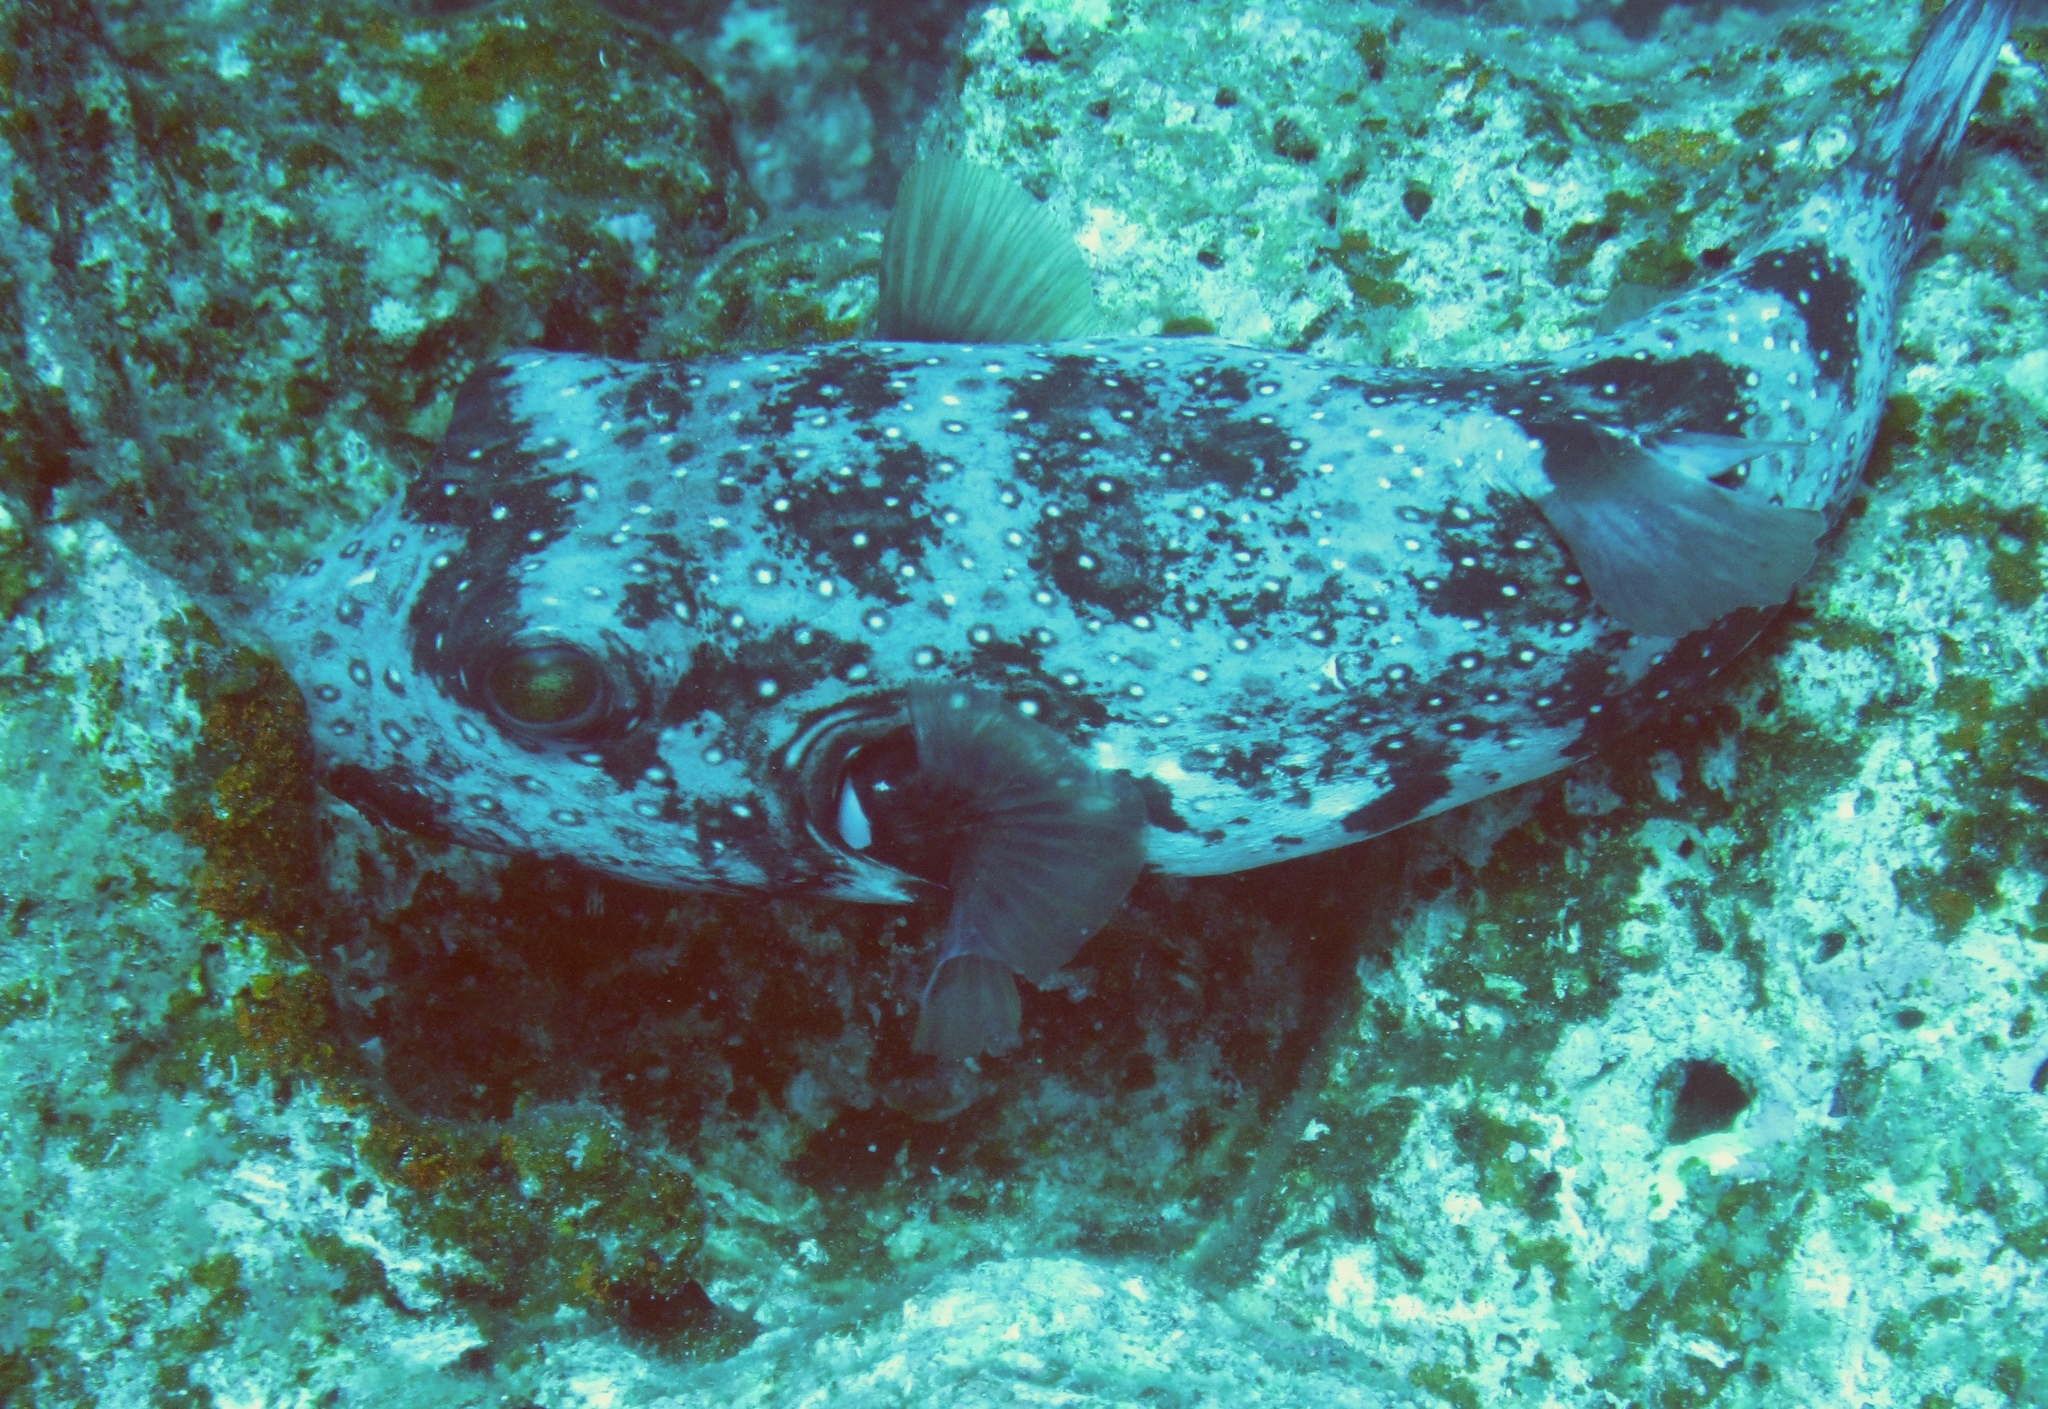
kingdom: Animalia
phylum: Chordata
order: Tetraodontiformes
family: Tetraodontidae
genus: Arothron
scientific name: Arothron hispidus
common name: Stripebelly puffer
